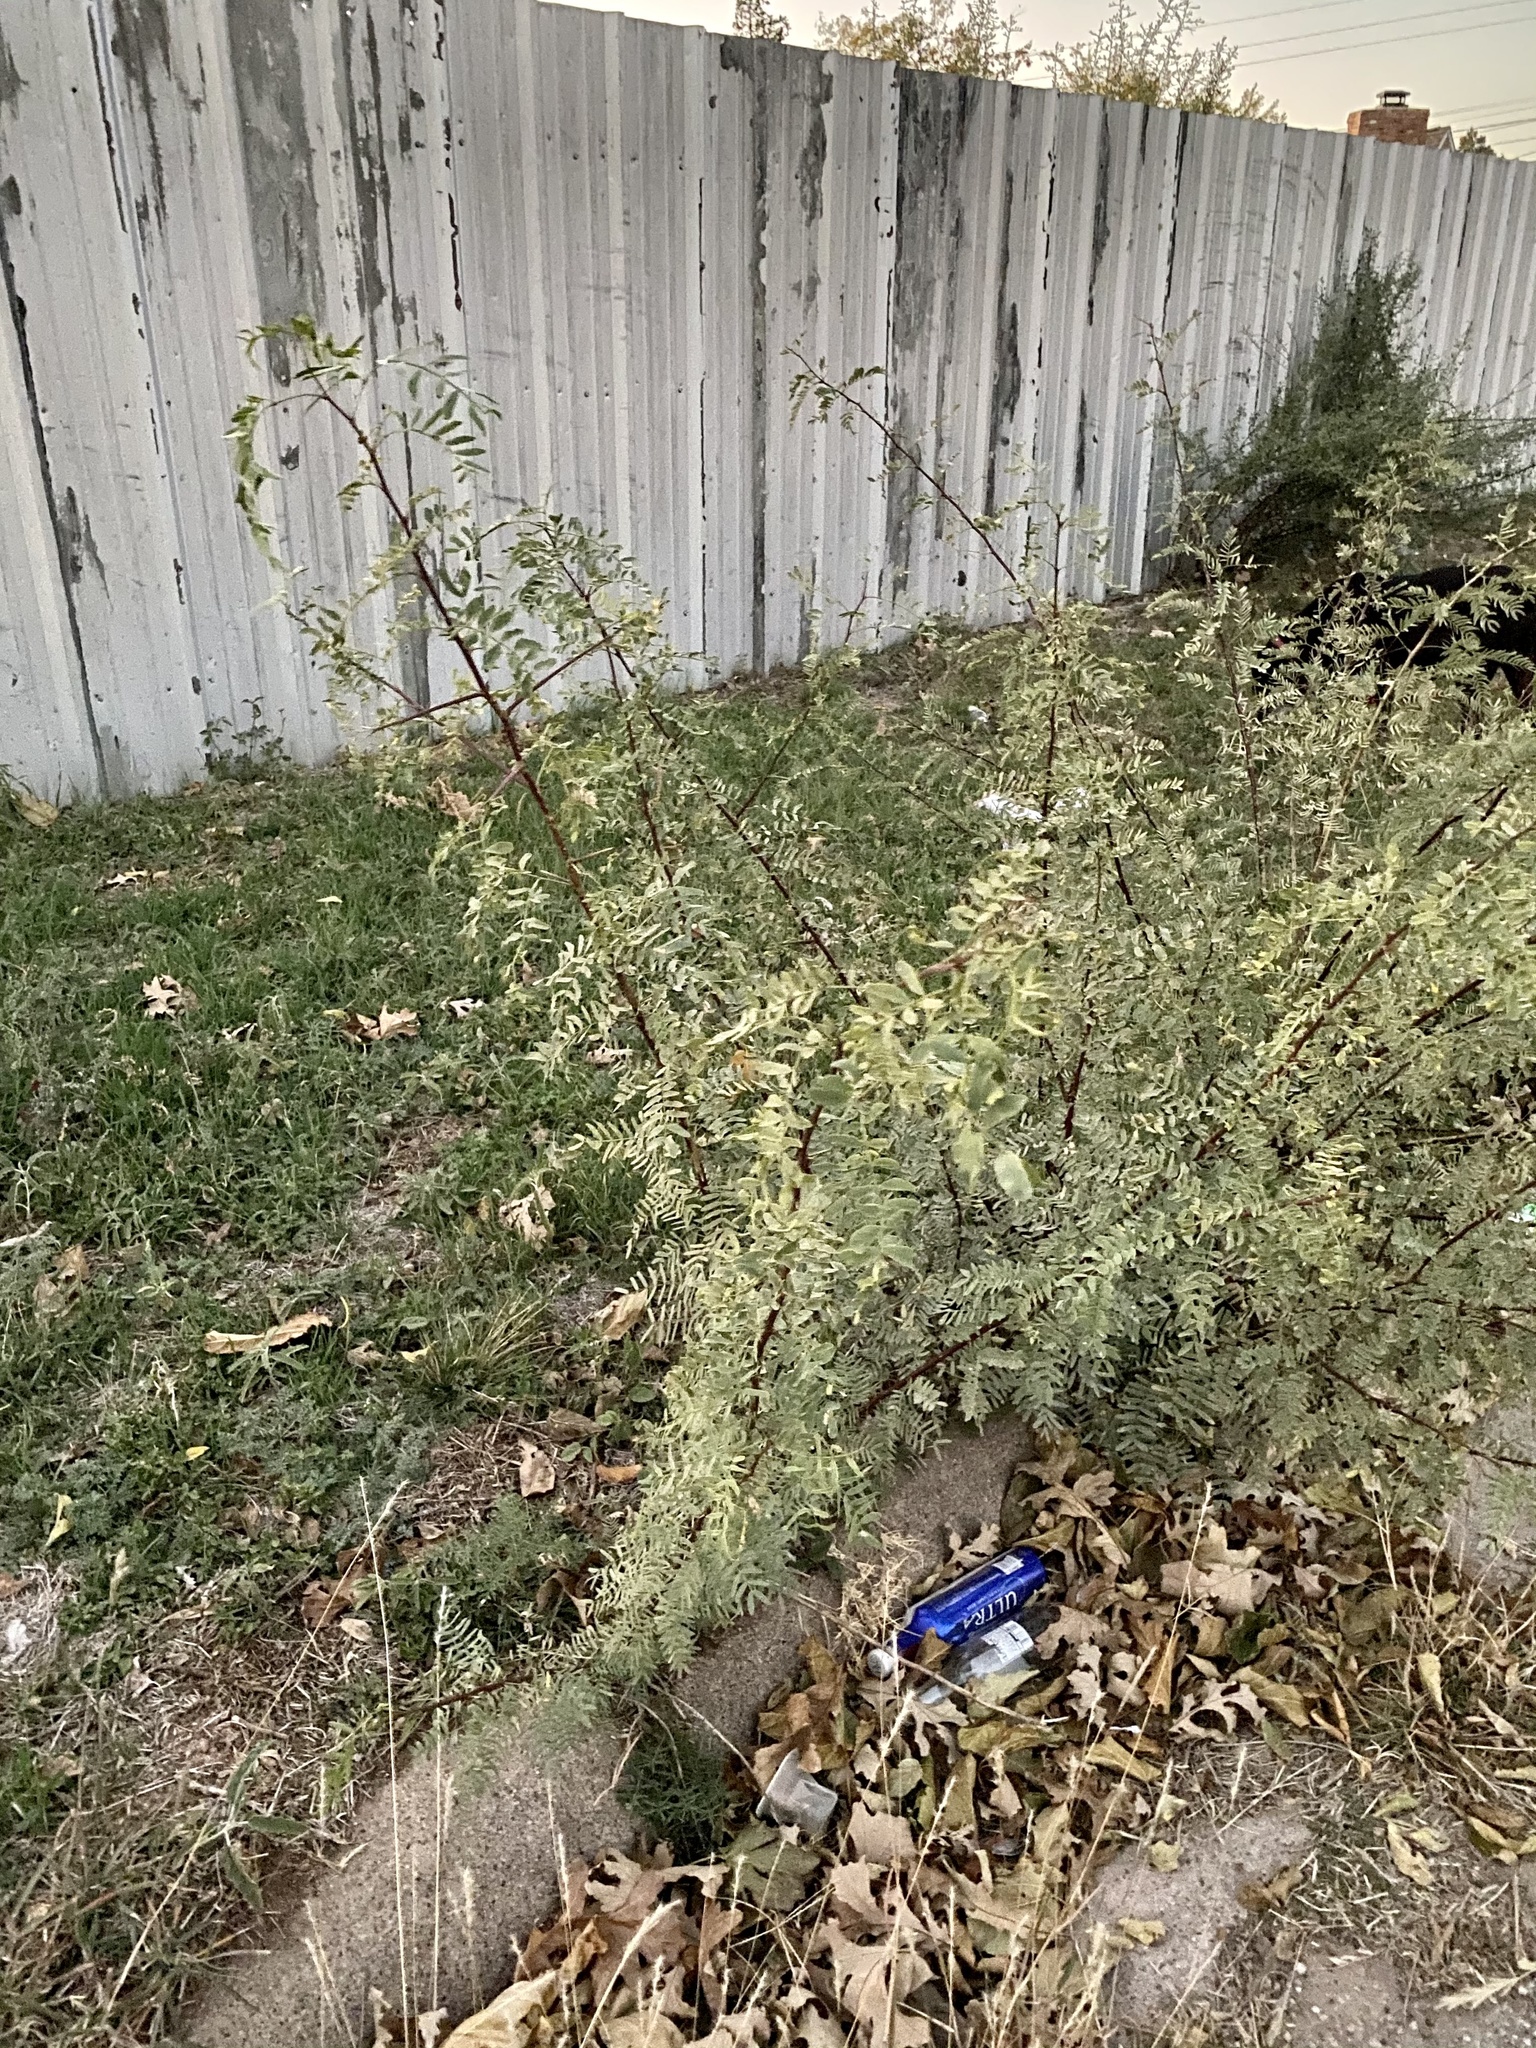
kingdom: Plantae
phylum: Tracheophyta
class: Magnoliopsida
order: Fabales
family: Fabaceae
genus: Prosopis
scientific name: Prosopis glandulosa
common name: Honey mesquite
